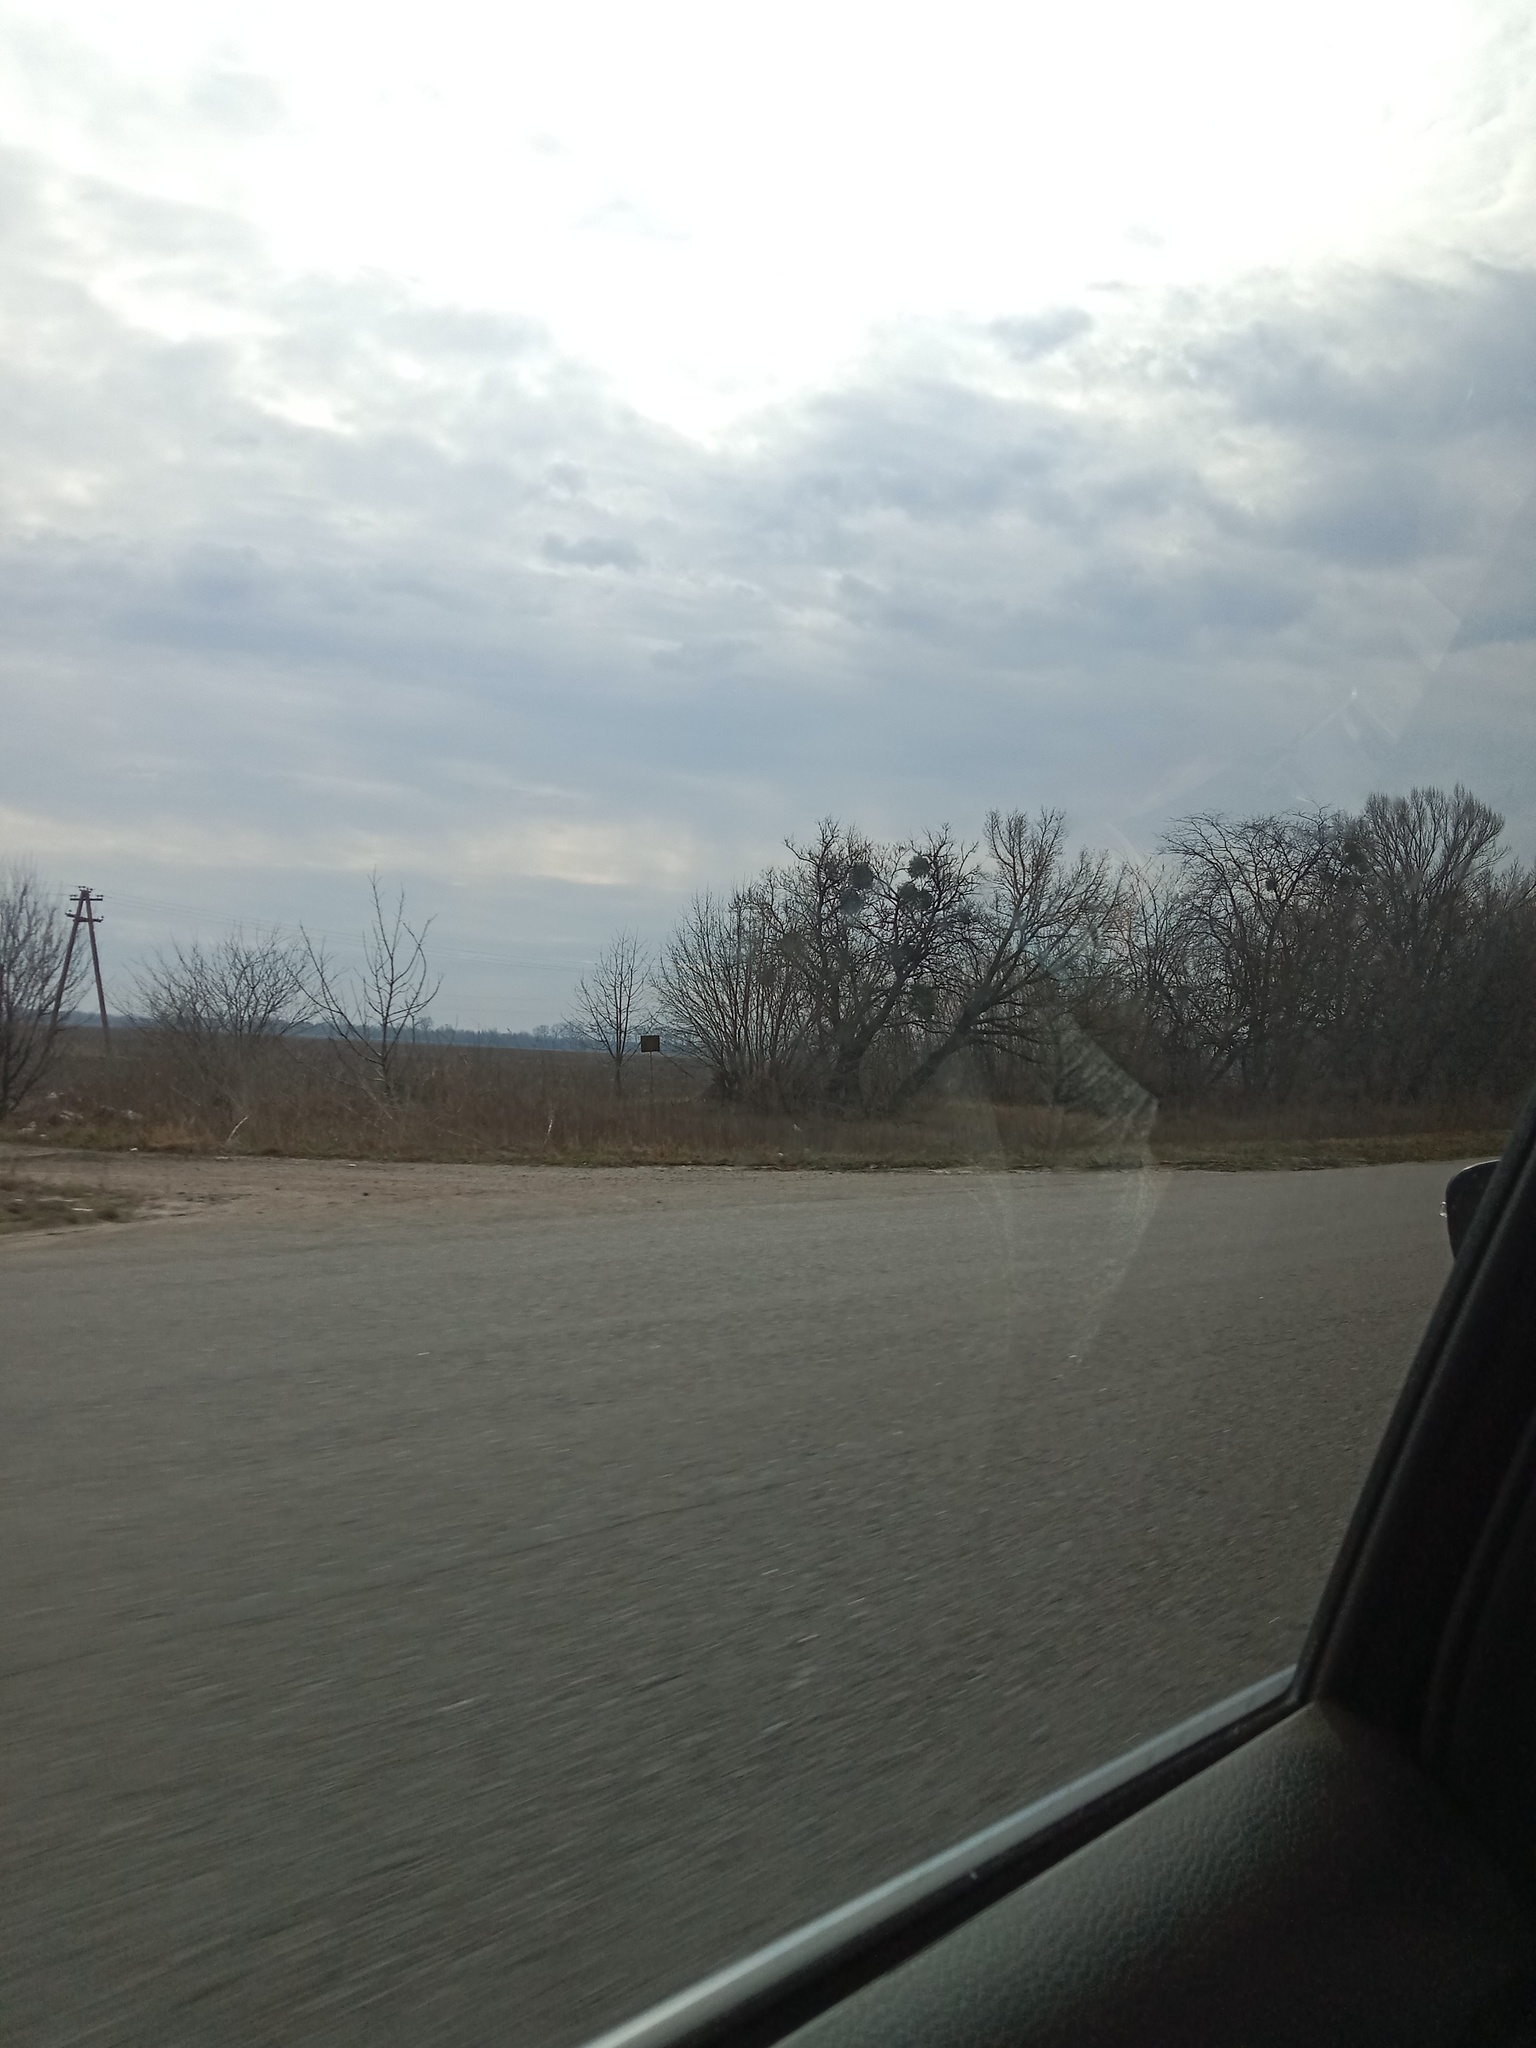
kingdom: Plantae
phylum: Tracheophyta
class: Magnoliopsida
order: Santalales
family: Viscaceae
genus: Viscum
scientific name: Viscum album
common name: Mistletoe
